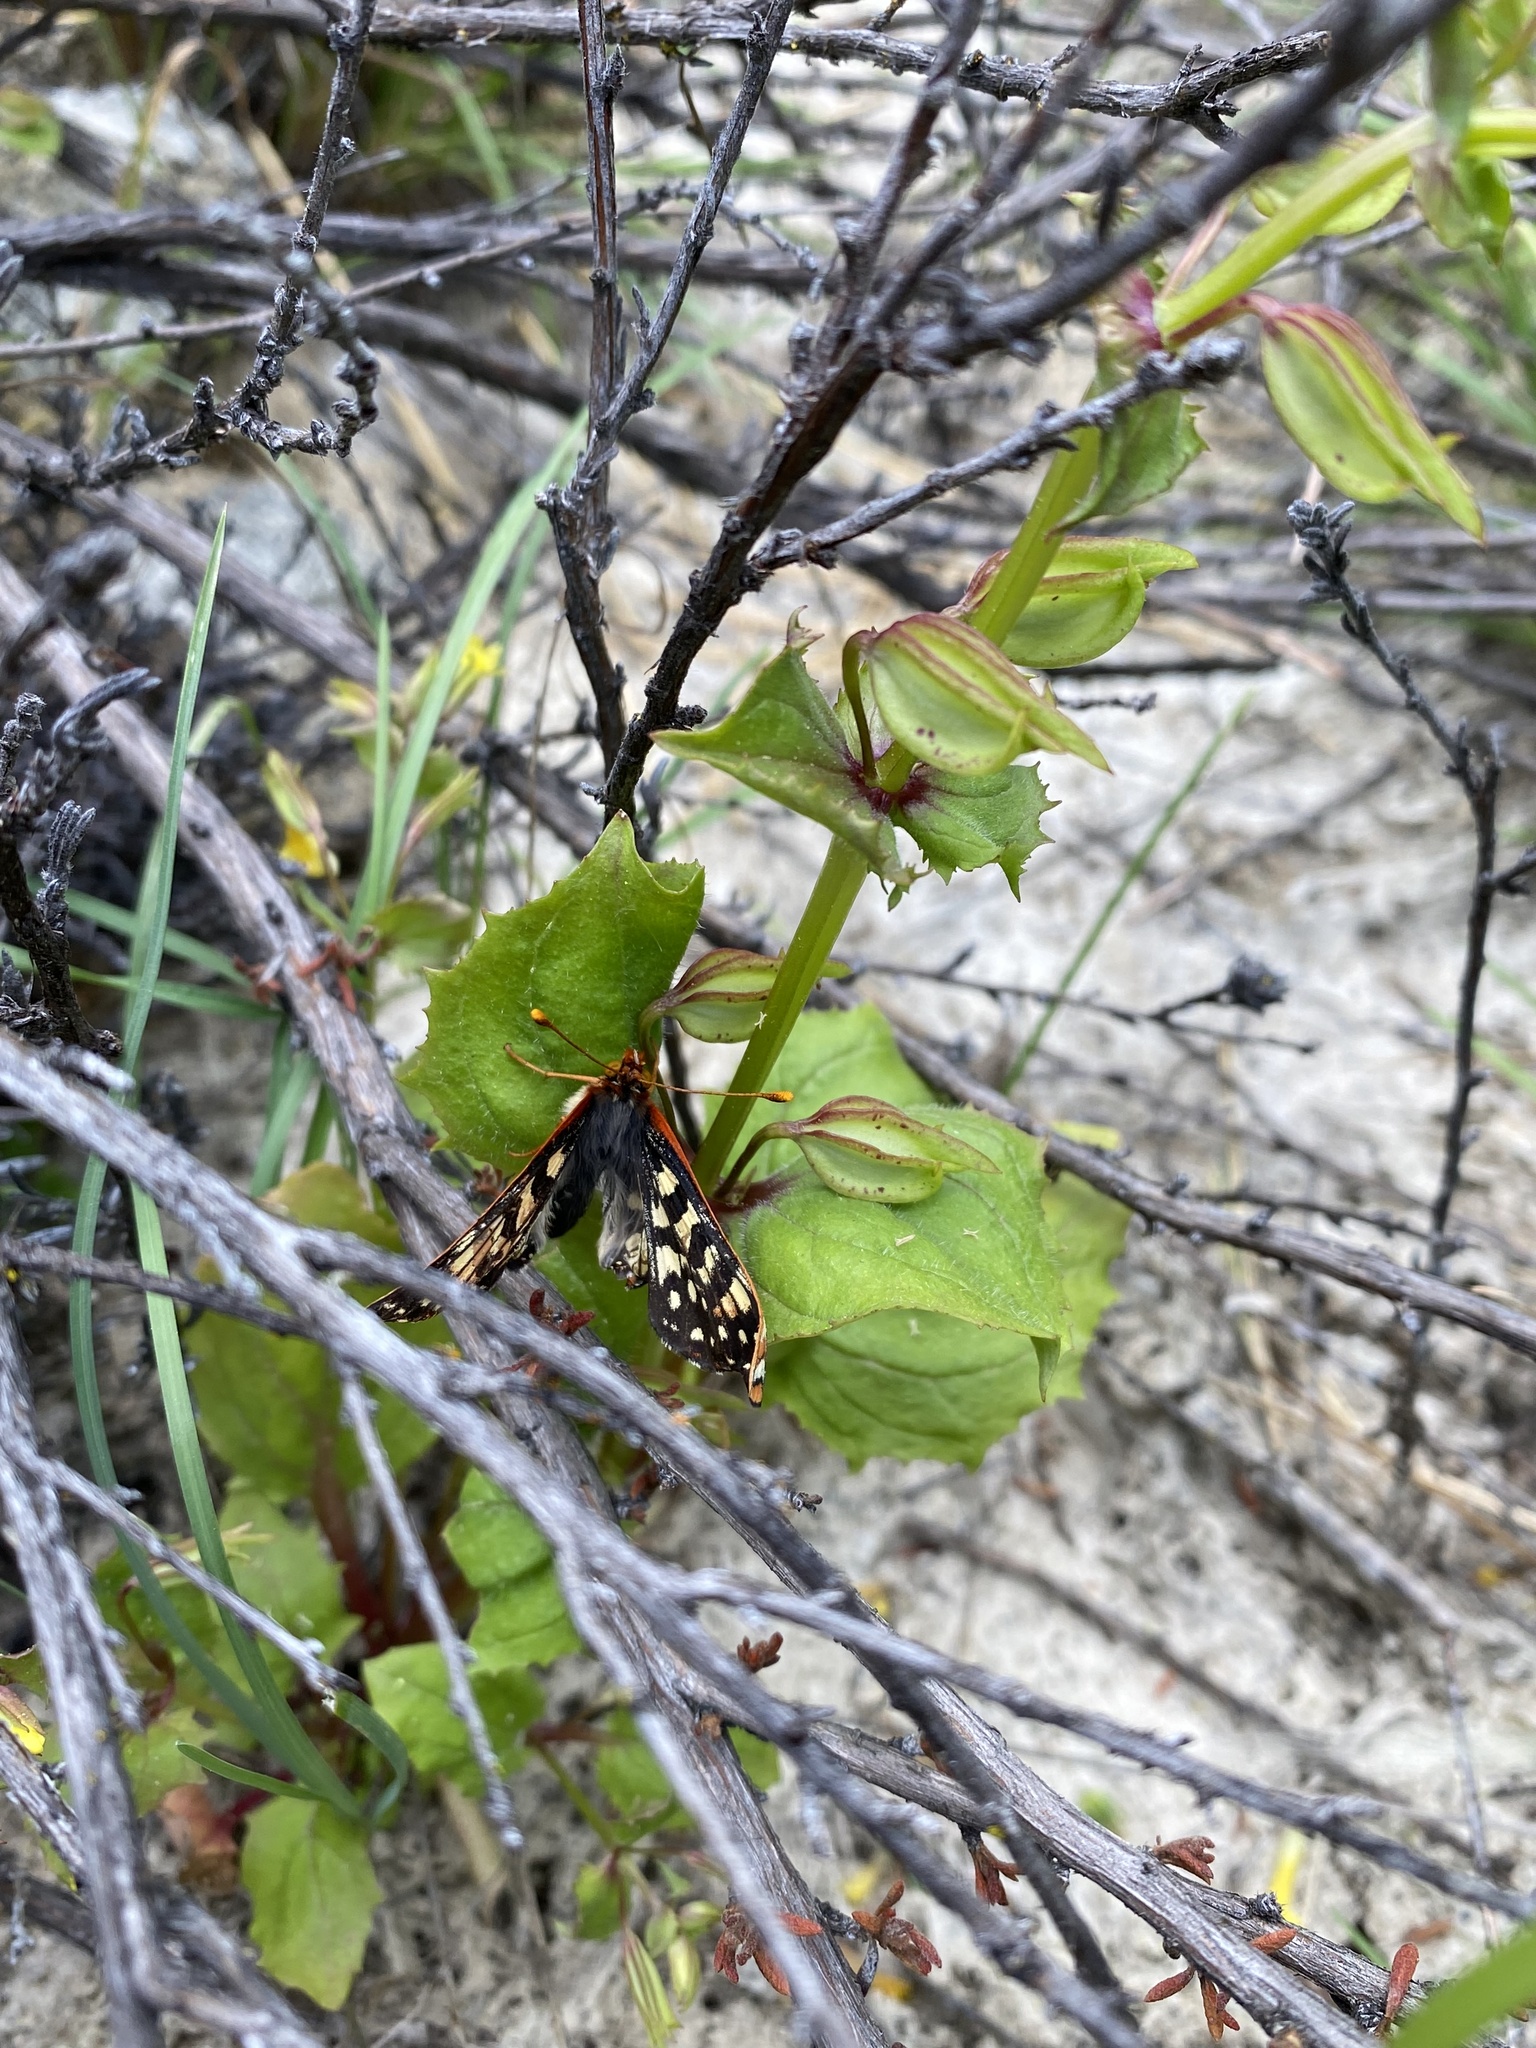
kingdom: Animalia
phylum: Arthropoda
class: Insecta
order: Lepidoptera
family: Nymphalidae
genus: Occidryas
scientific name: Occidryas chalcedona
